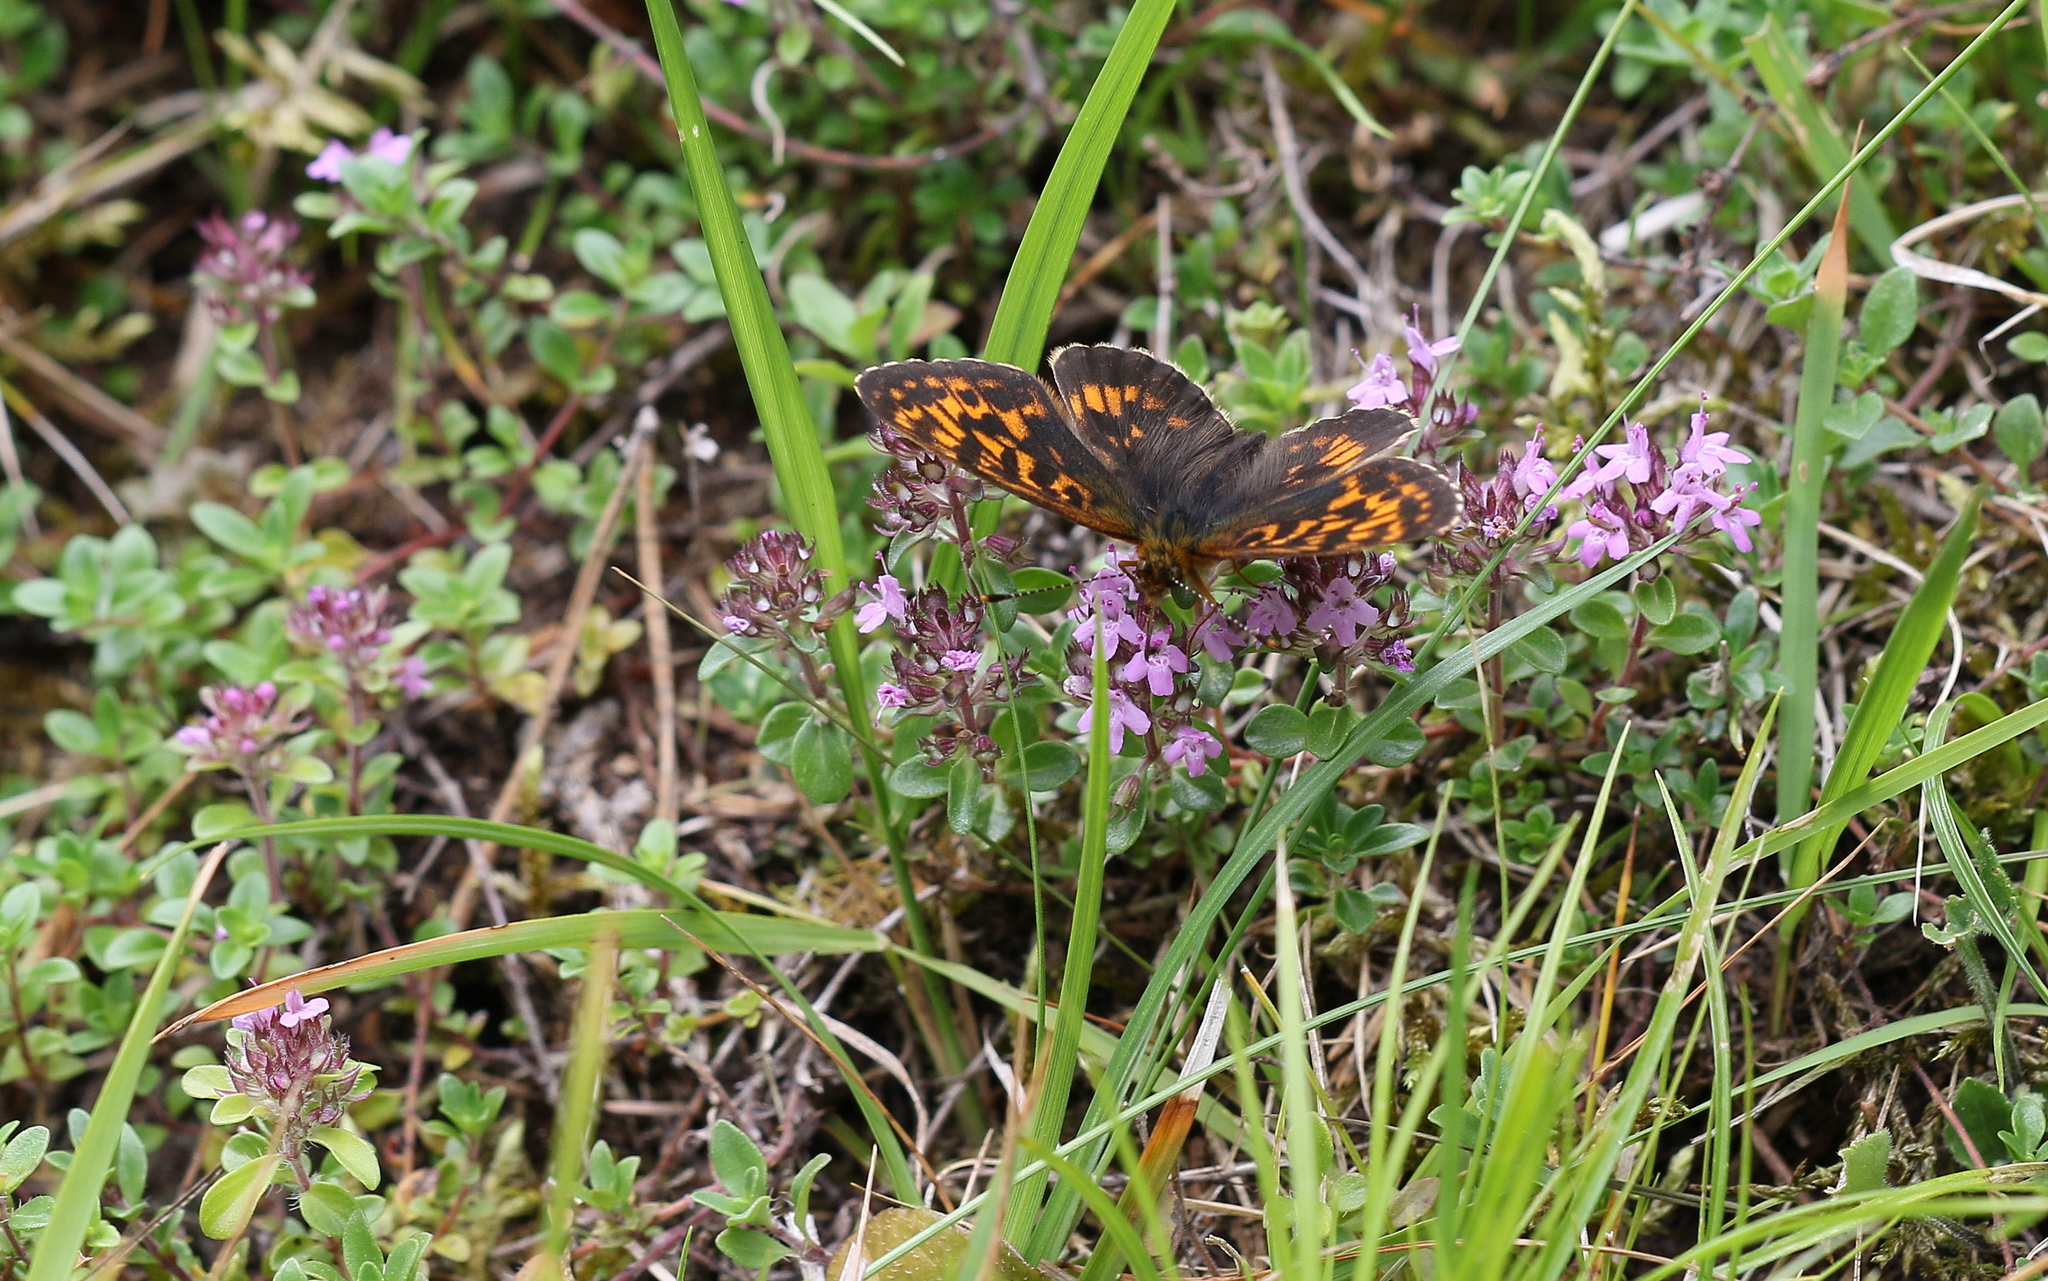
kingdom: Animalia
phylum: Arthropoda
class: Insecta
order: Lepidoptera
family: Nymphalidae
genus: Boloria
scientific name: Boloria thore
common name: Thor's fritillary
